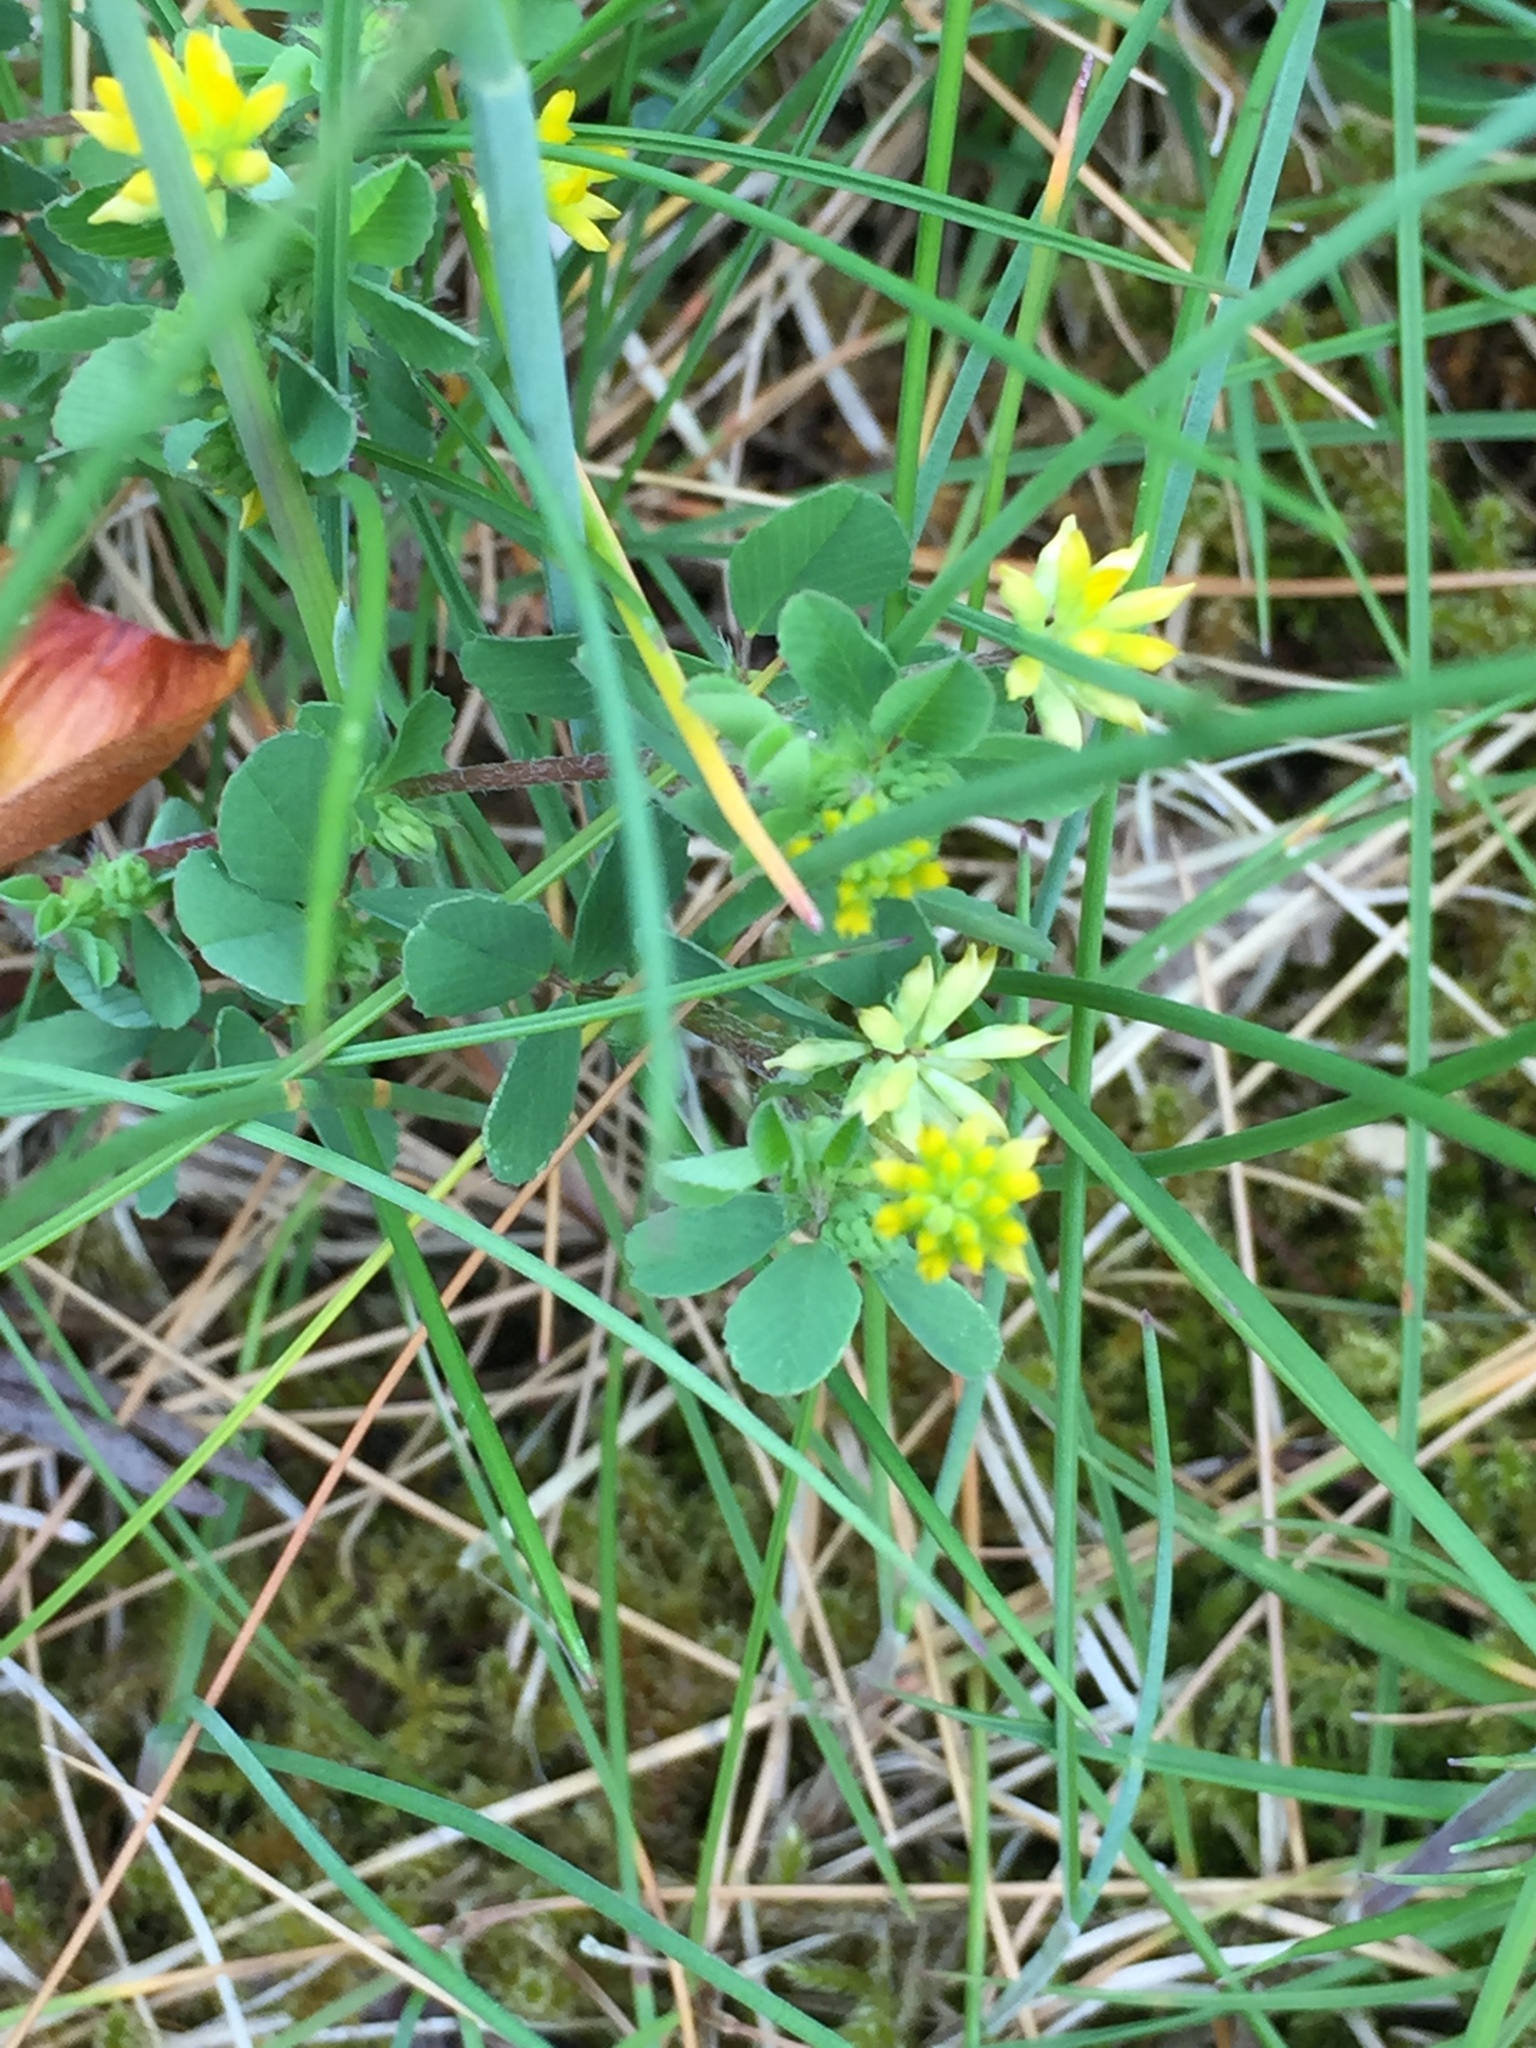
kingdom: Plantae
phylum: Tracheophyta
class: Magnoliopsida
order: Fabales
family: Fabaceae
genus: Trifolium
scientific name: Trifolium dubium
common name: Suckling clover
